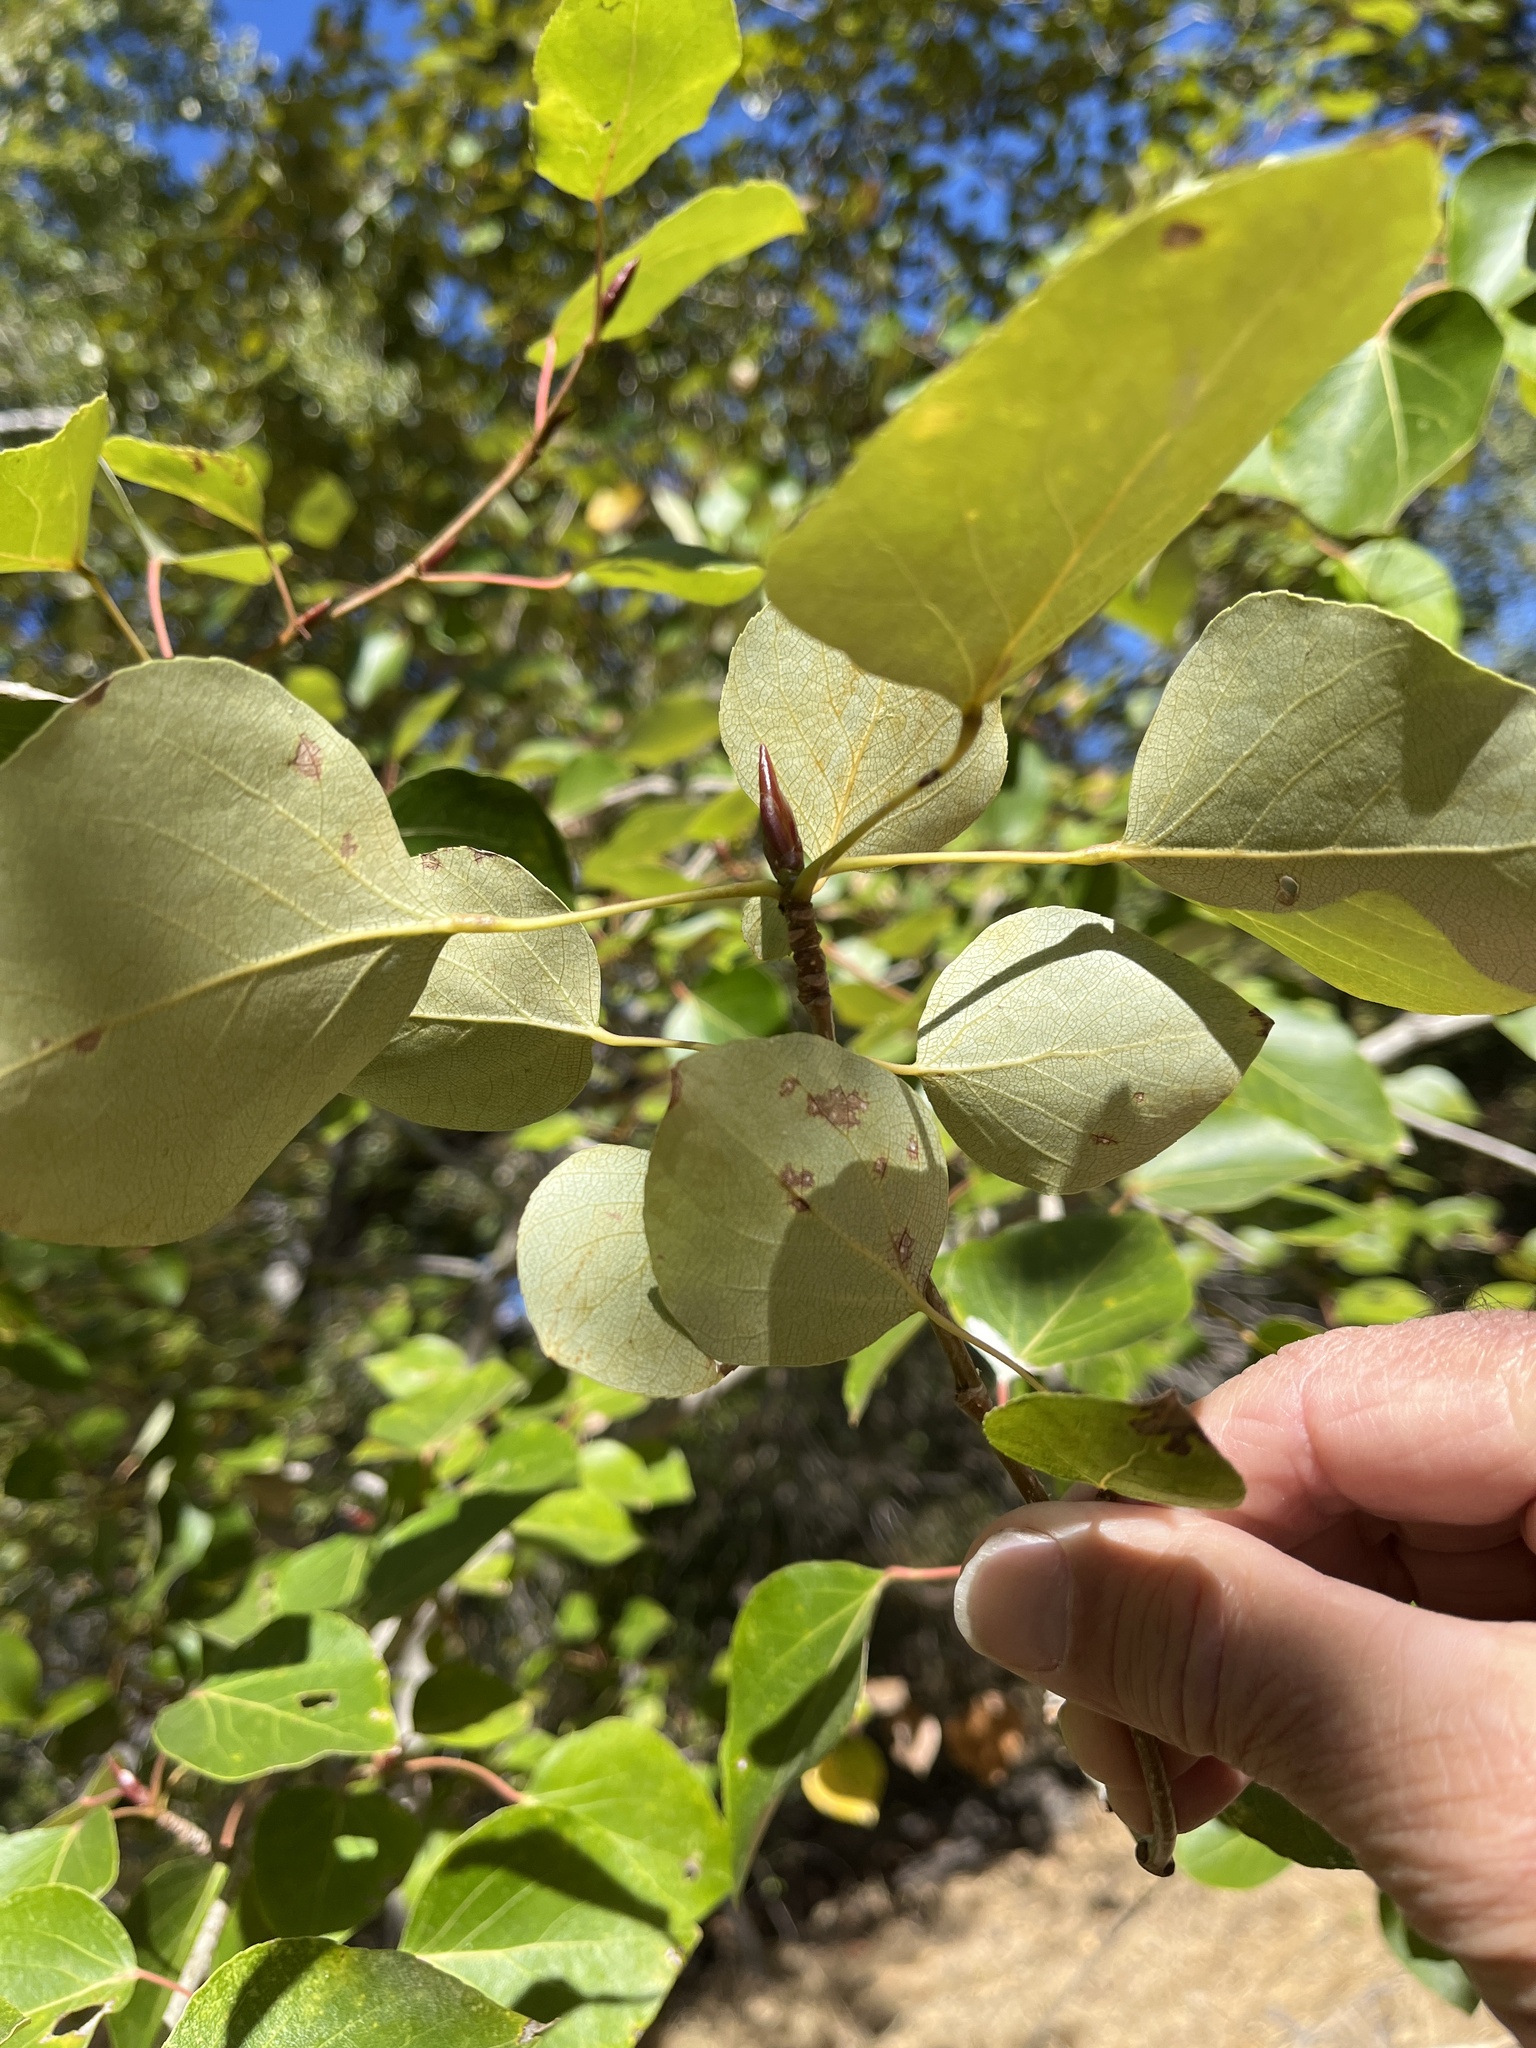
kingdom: Plantae
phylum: Tracheophyta
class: Magnoliopsida
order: Malpighiales
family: Salicaceae
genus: Populus
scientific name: Populus trichocarpa
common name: Black cottonwood
